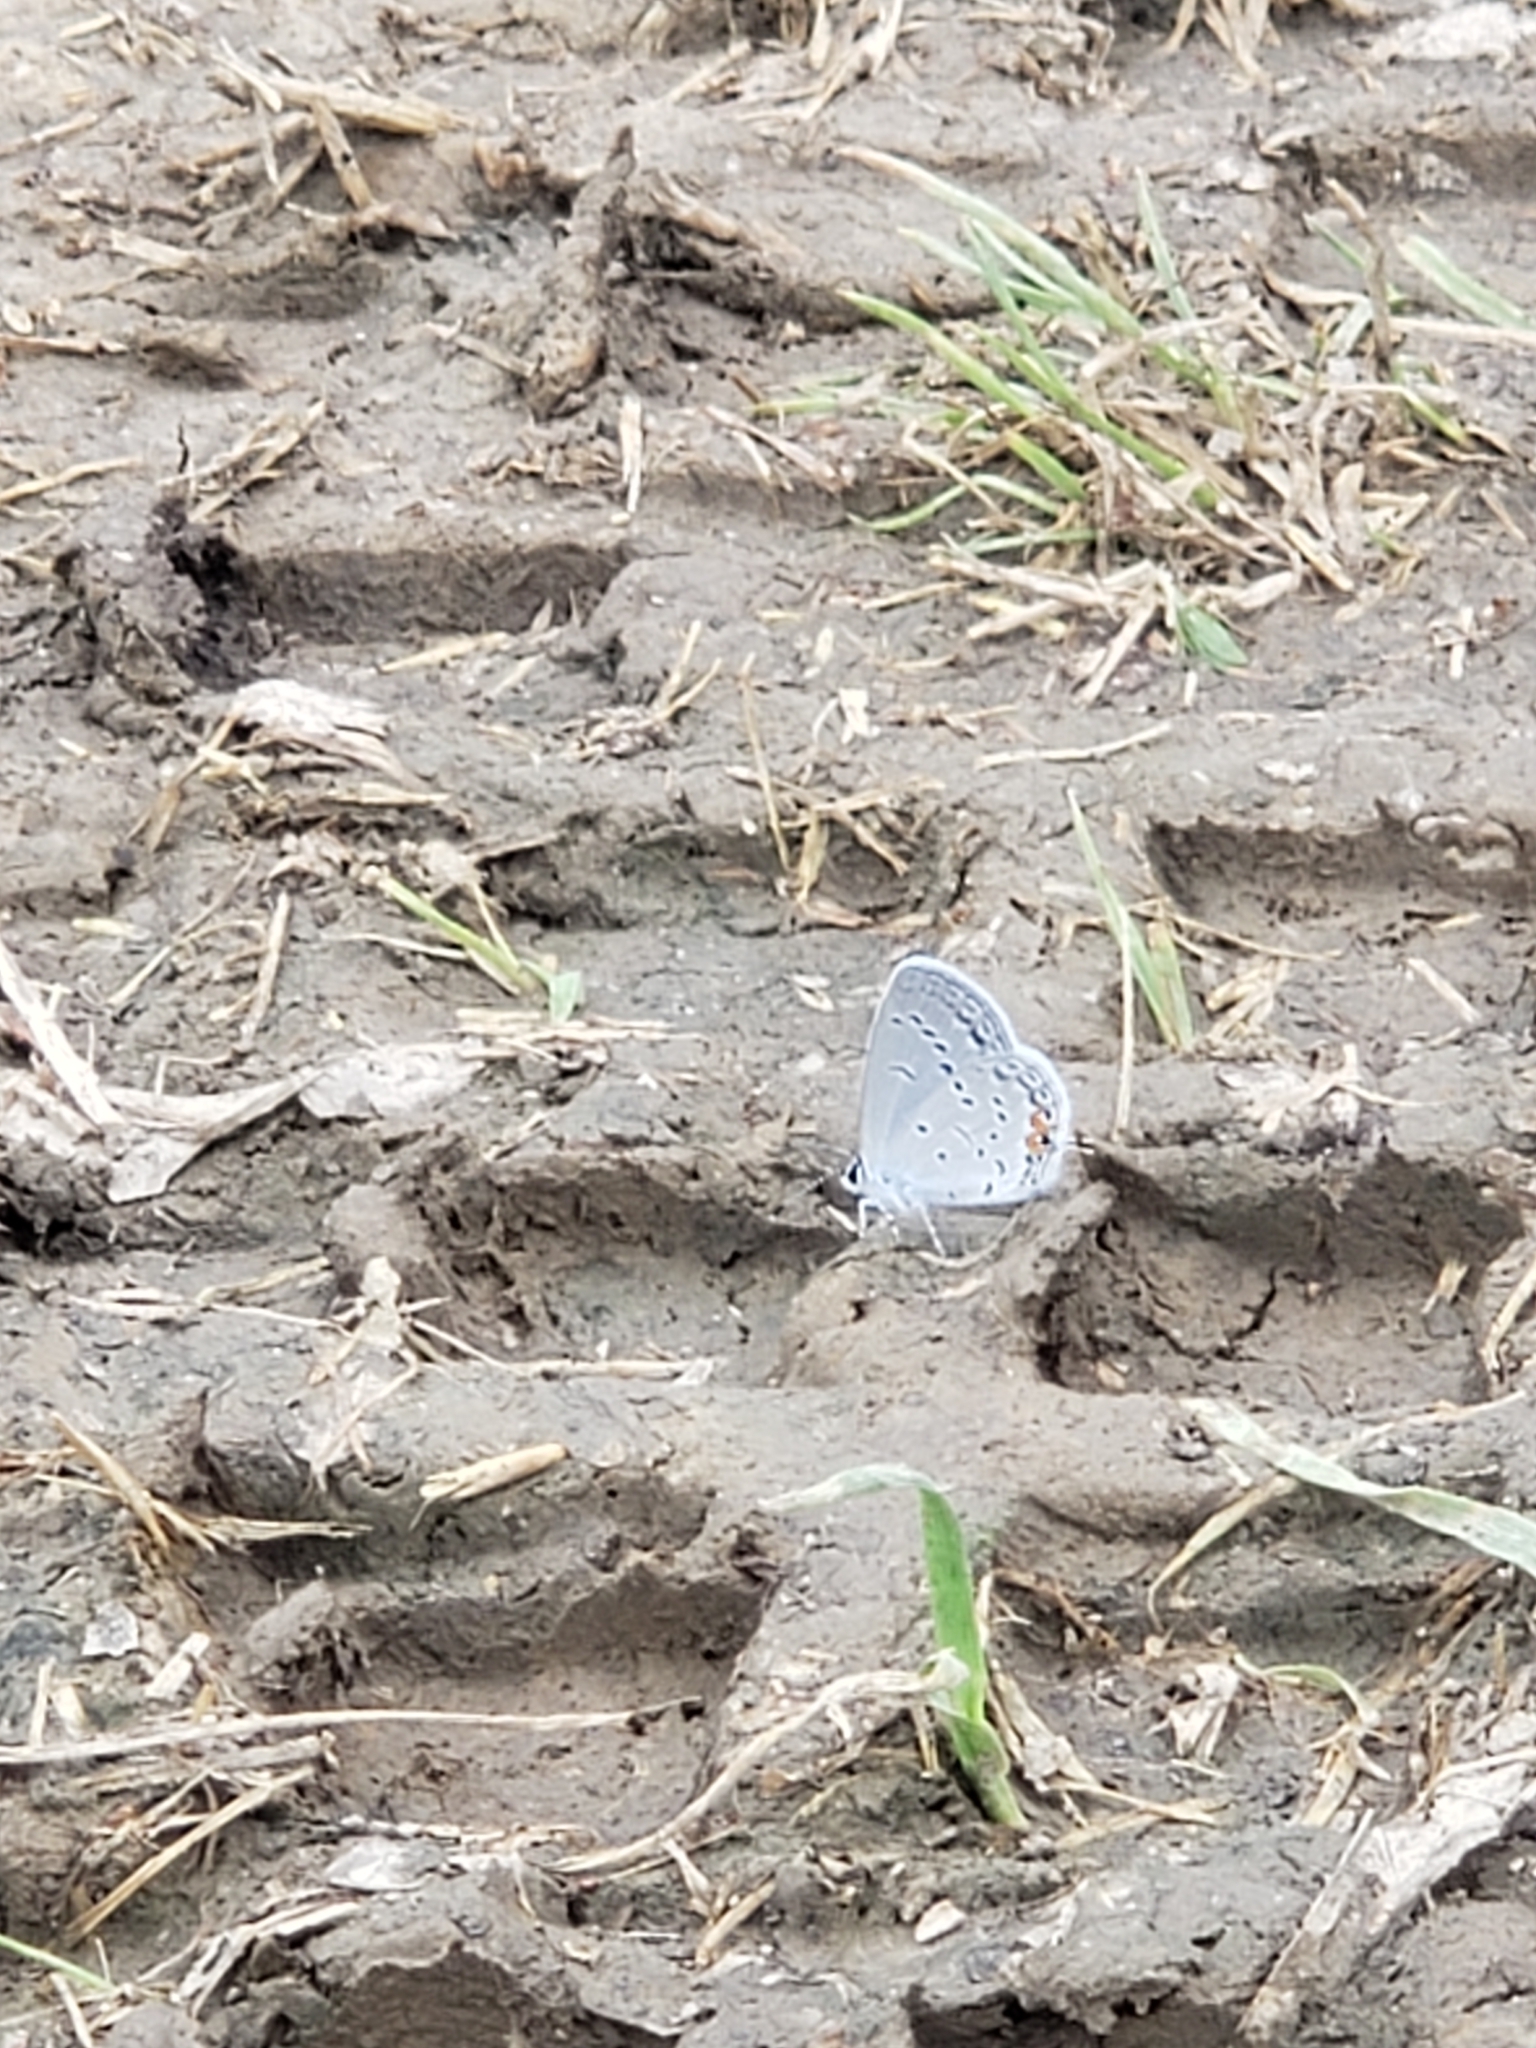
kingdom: Animalia
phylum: Arthropoda
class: Insecta
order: Lepidoptera
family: Lycaenidae
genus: Elkalyce
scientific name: Elkalyce comyntas
